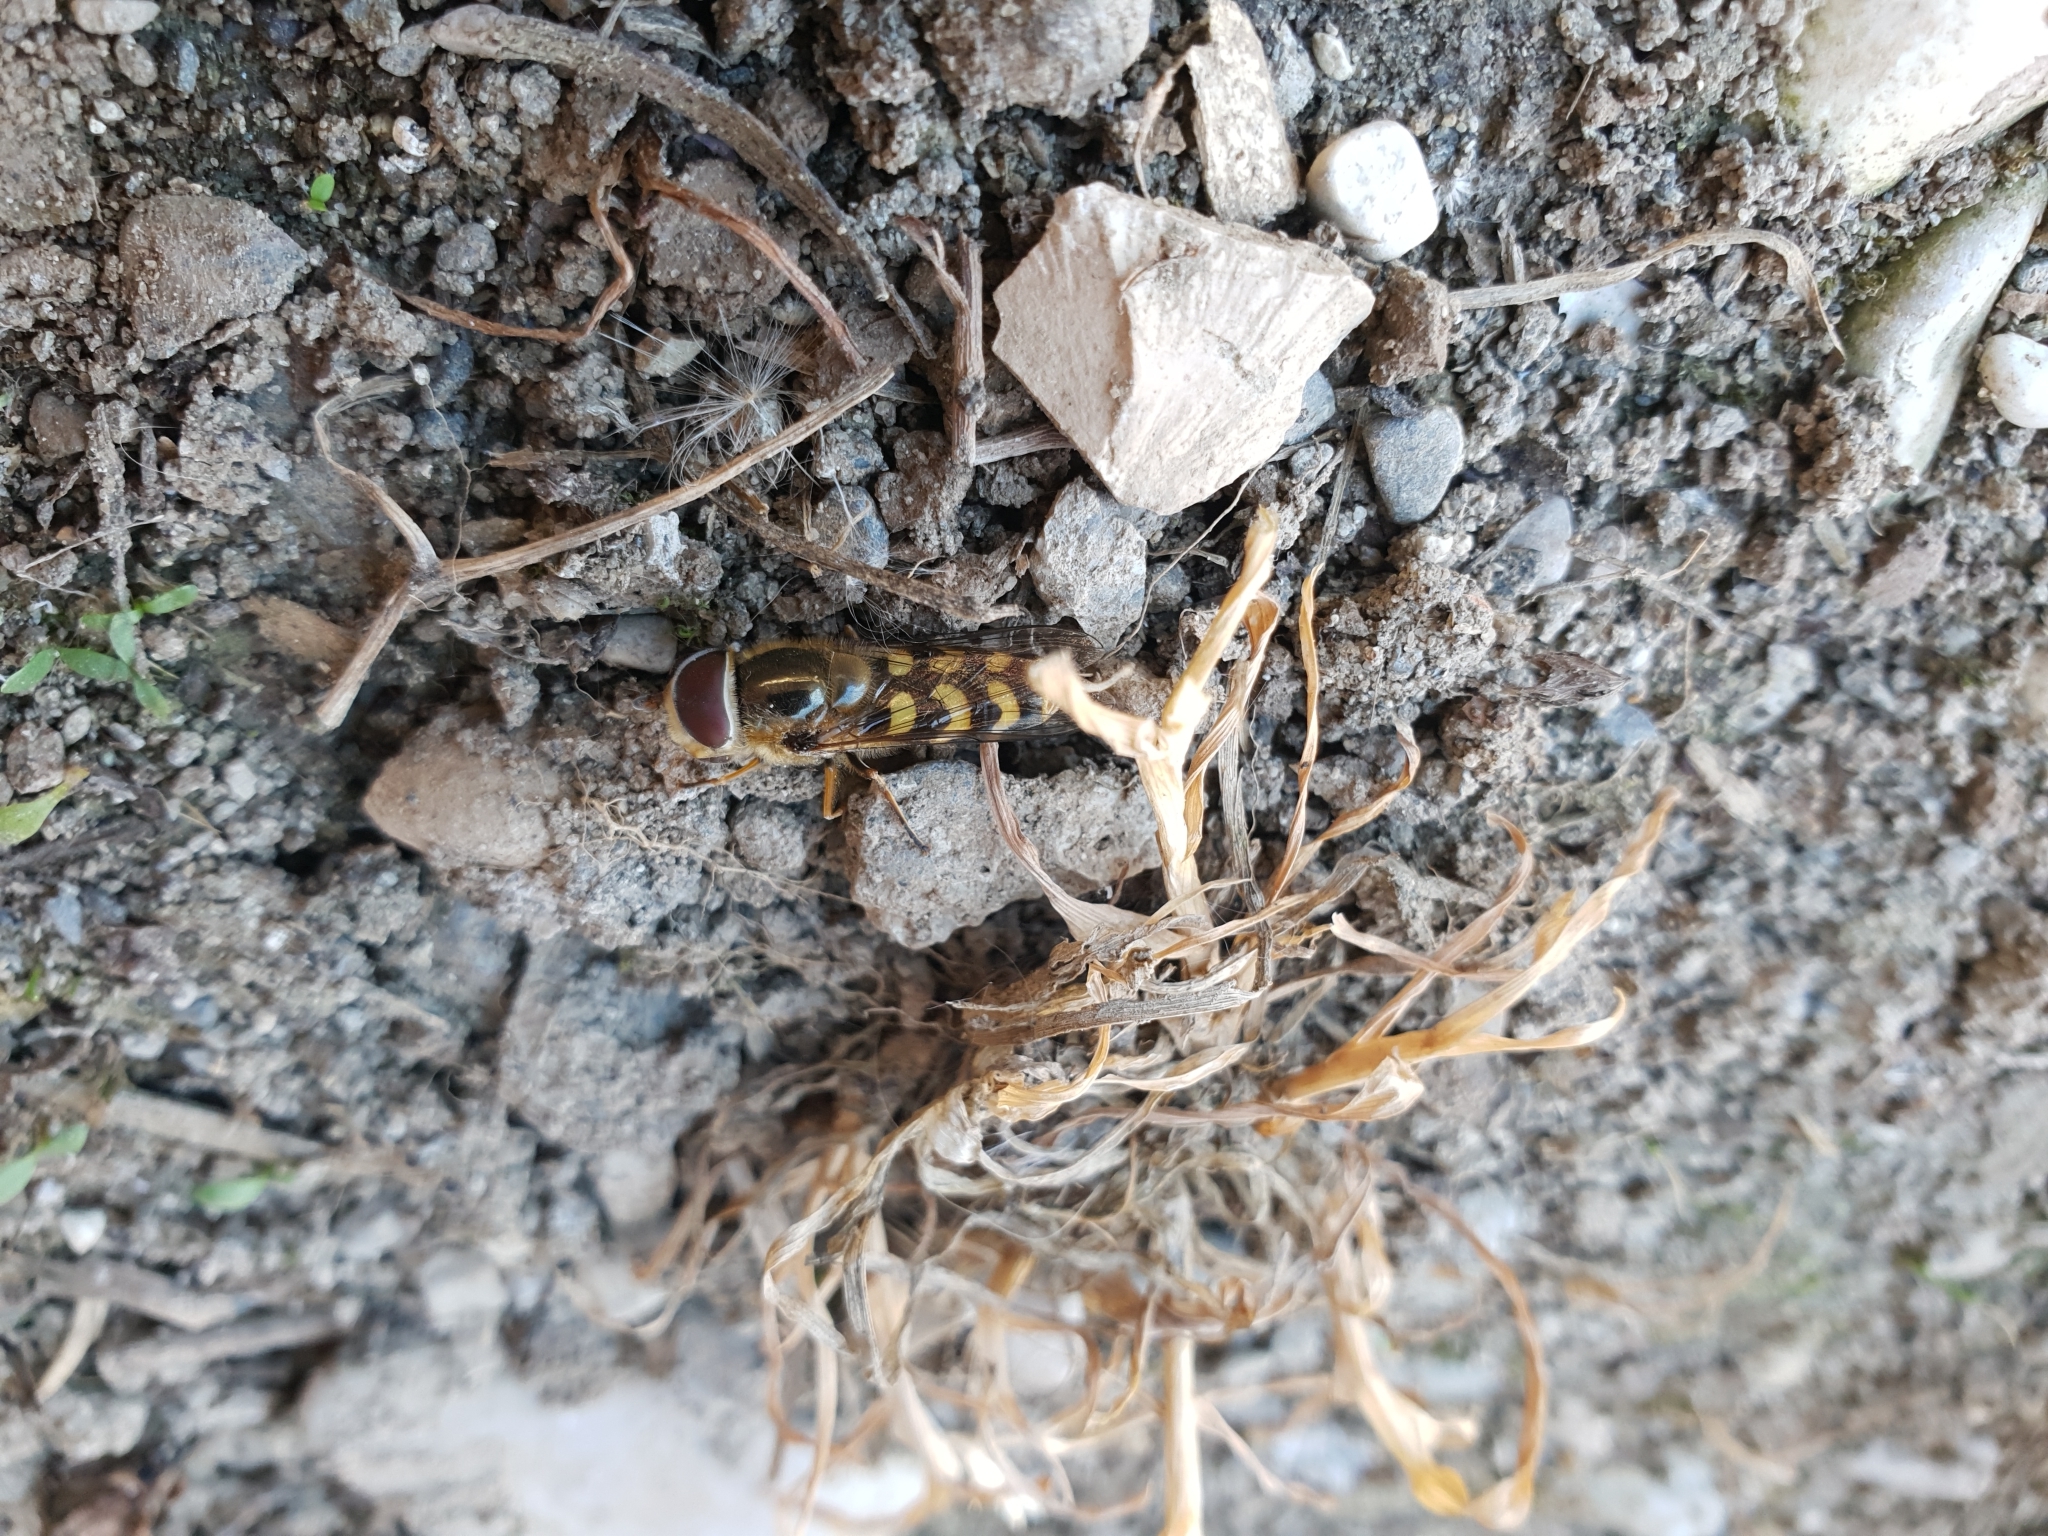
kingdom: Animalia
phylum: Arthropoda
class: Insecta
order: Diptera
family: Syrphidae
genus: Scaeva
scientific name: Scaeva dignota
